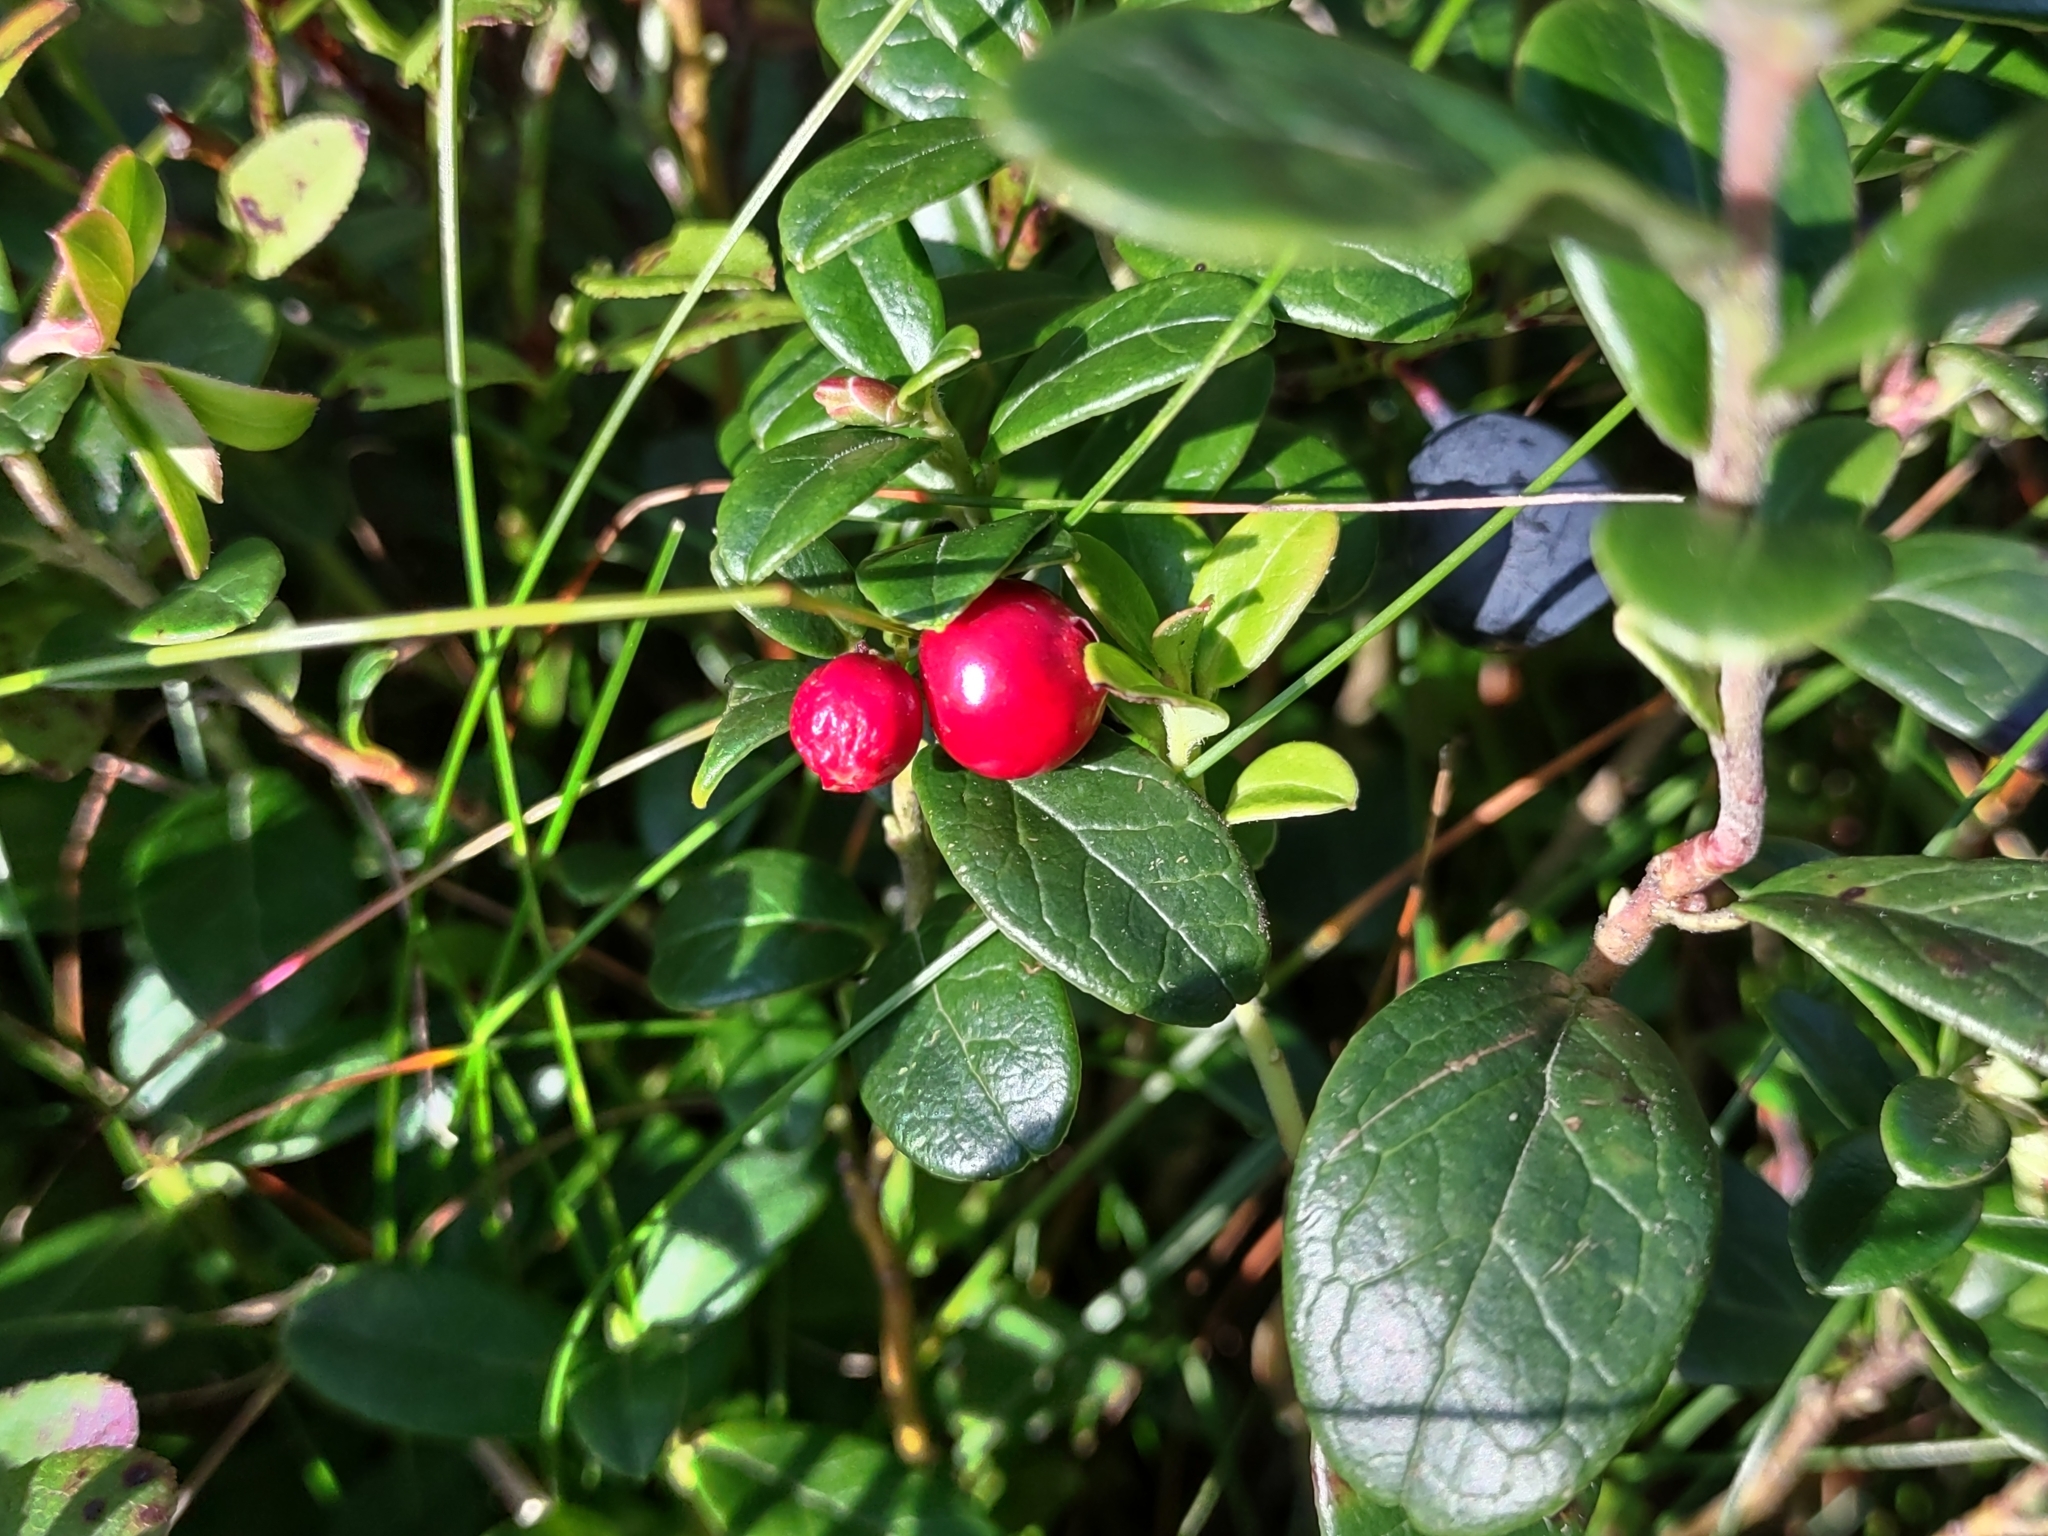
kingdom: Plantae
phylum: Tracheophyta
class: Magnoliopsida
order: Ericales
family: Ericaceae
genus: Vaccinium
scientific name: Vaccinium vitis-idaea
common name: Cowberry
